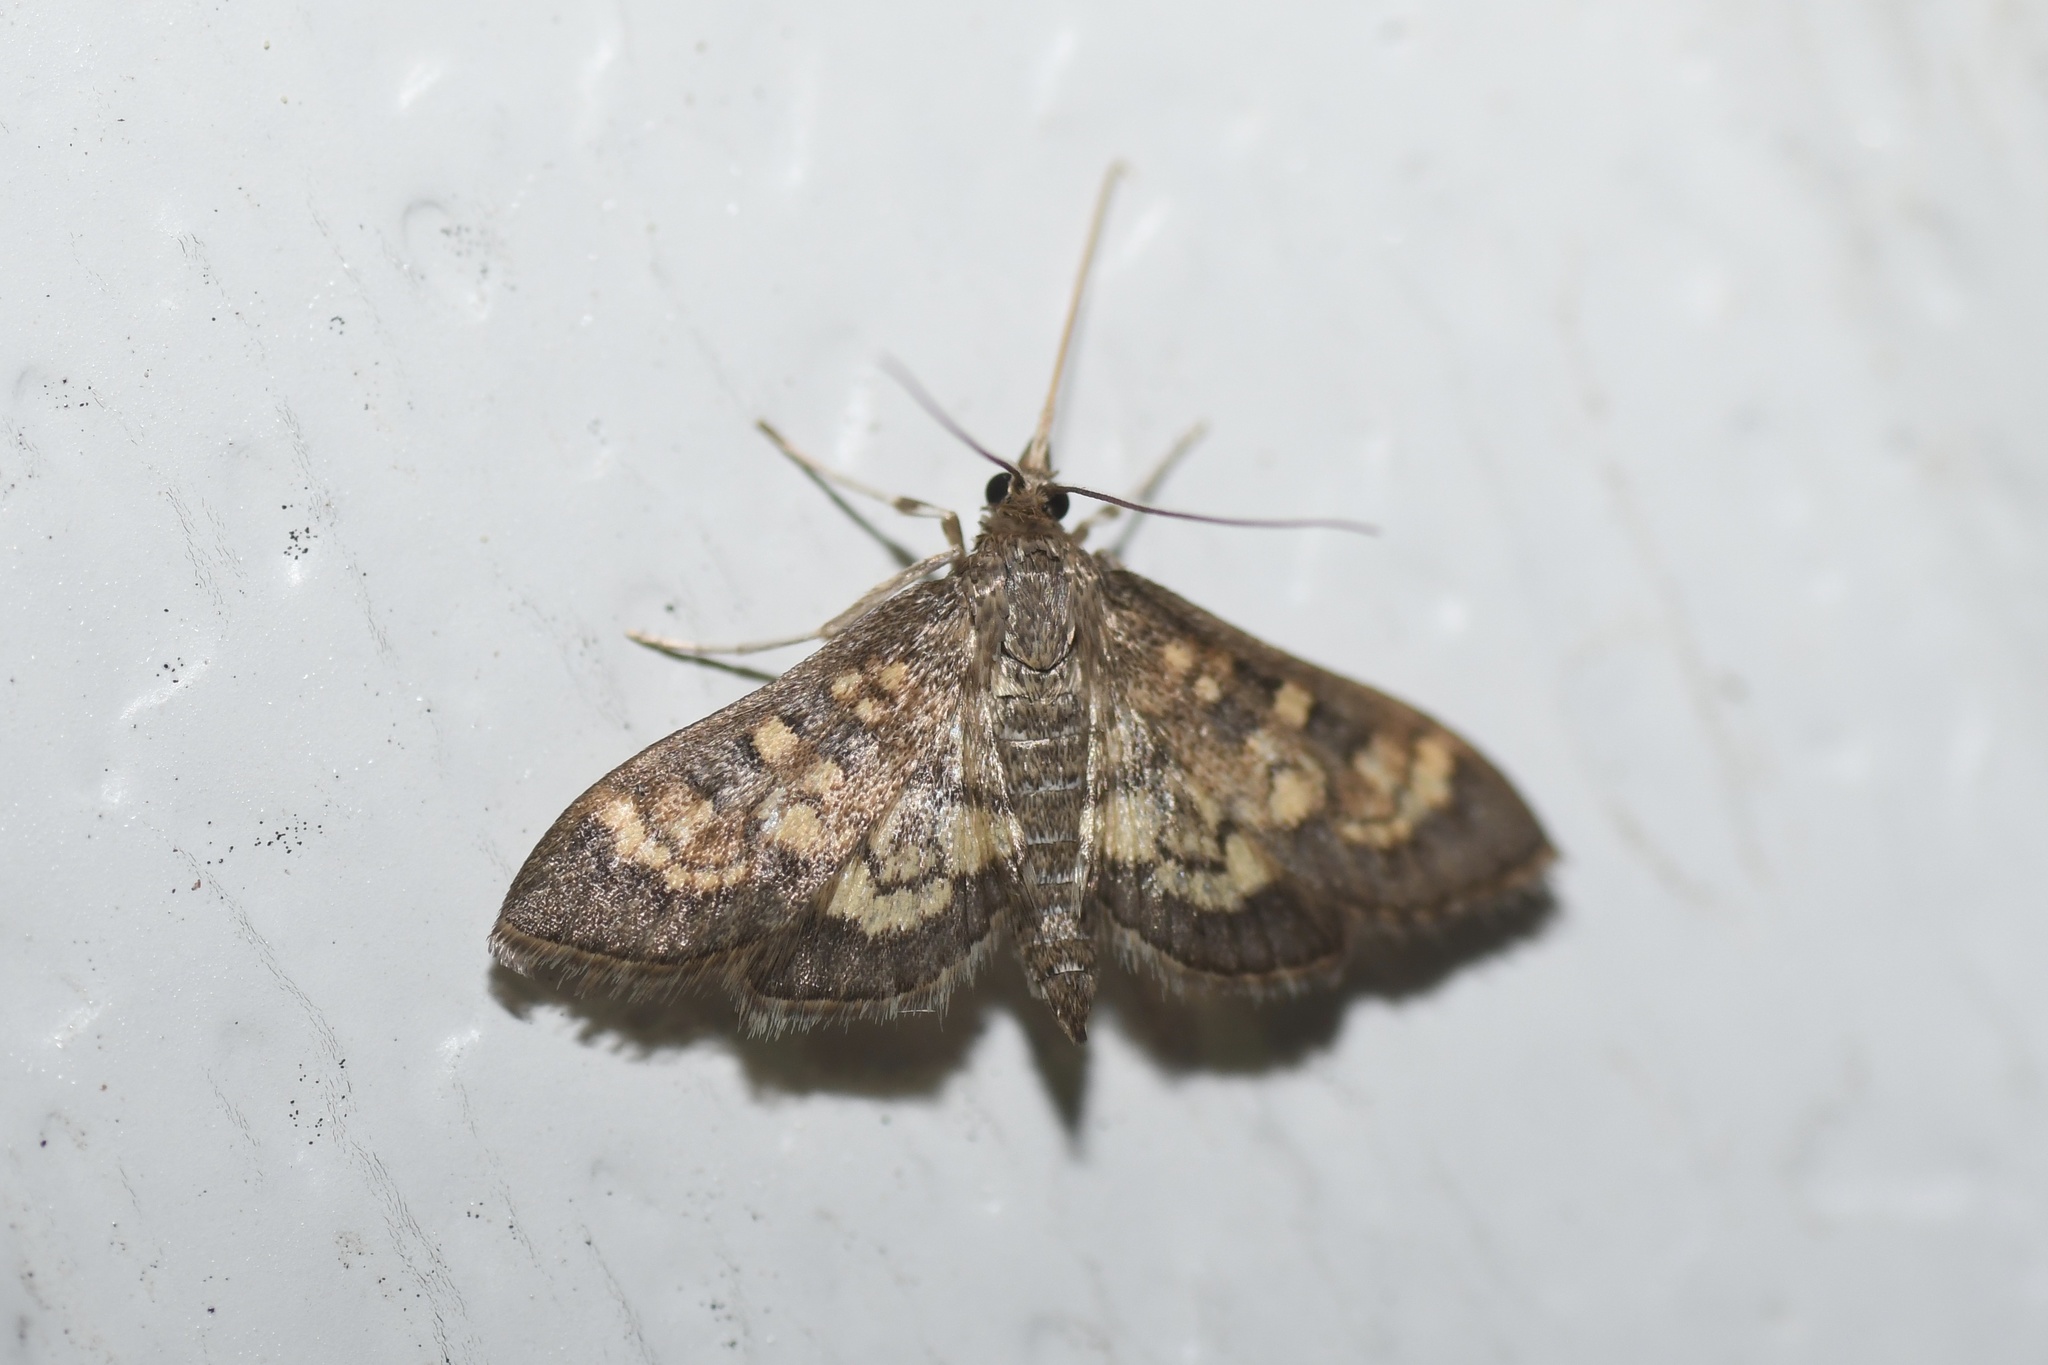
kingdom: Animalia
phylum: Arthropoda
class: Insecta
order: Lepidoptera
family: Crambidae
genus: Epipagis
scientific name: Epipagis adipaloides
